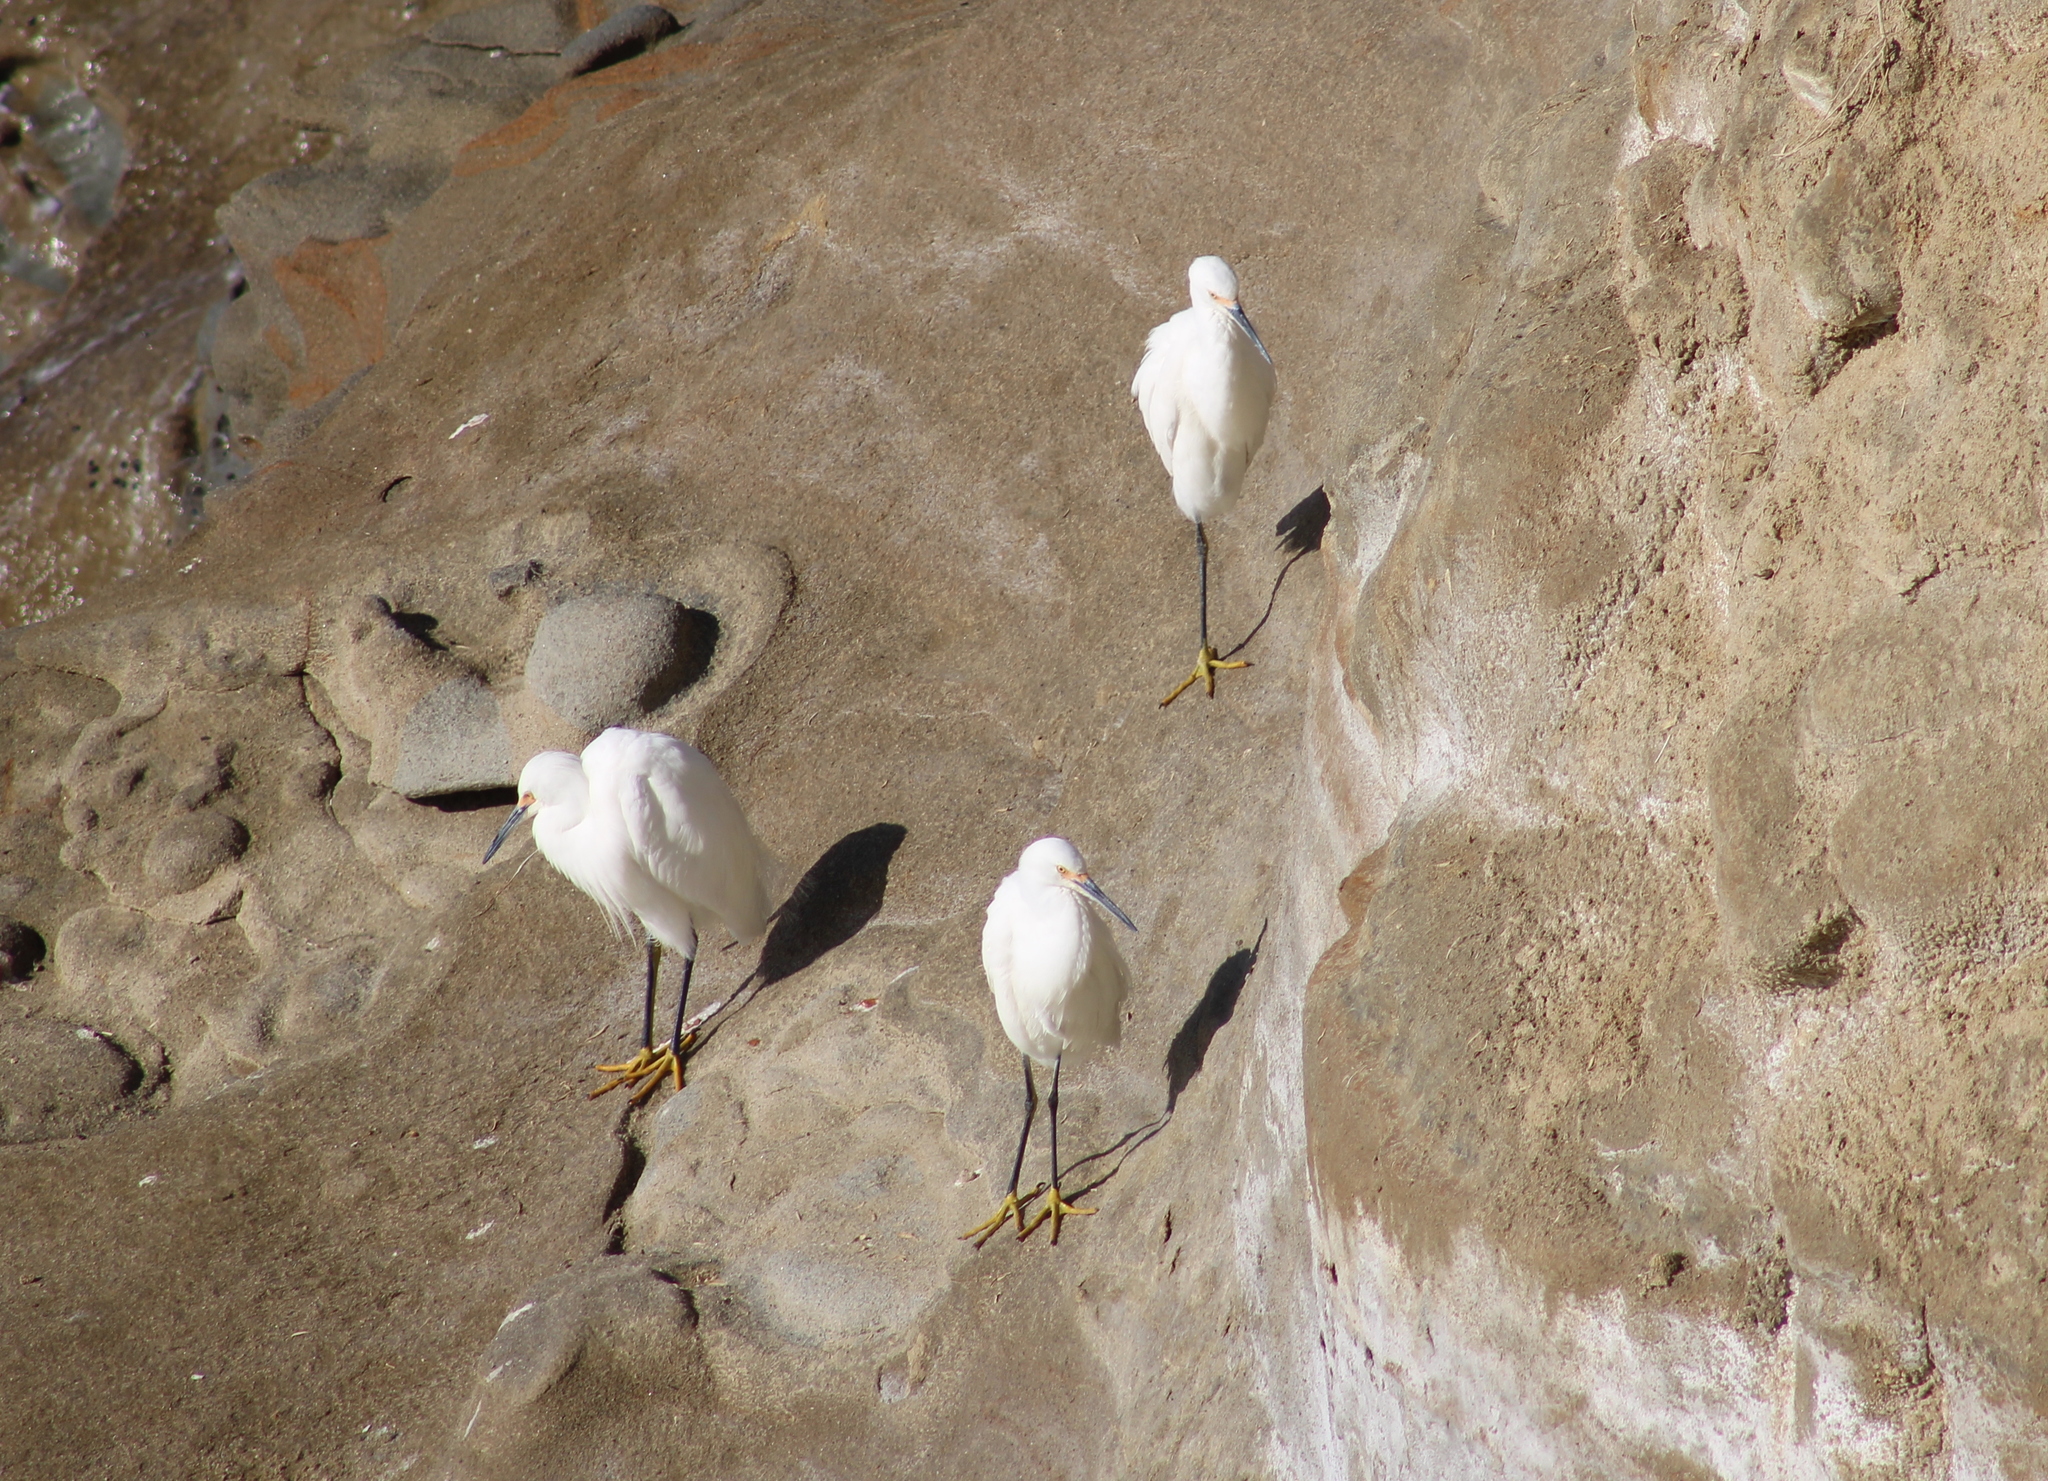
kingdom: Animalia
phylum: Chordata
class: Aves
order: Pelecaniformes
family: Ardeidae
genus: Egretta
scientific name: Egretta thula
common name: Snowy egret
